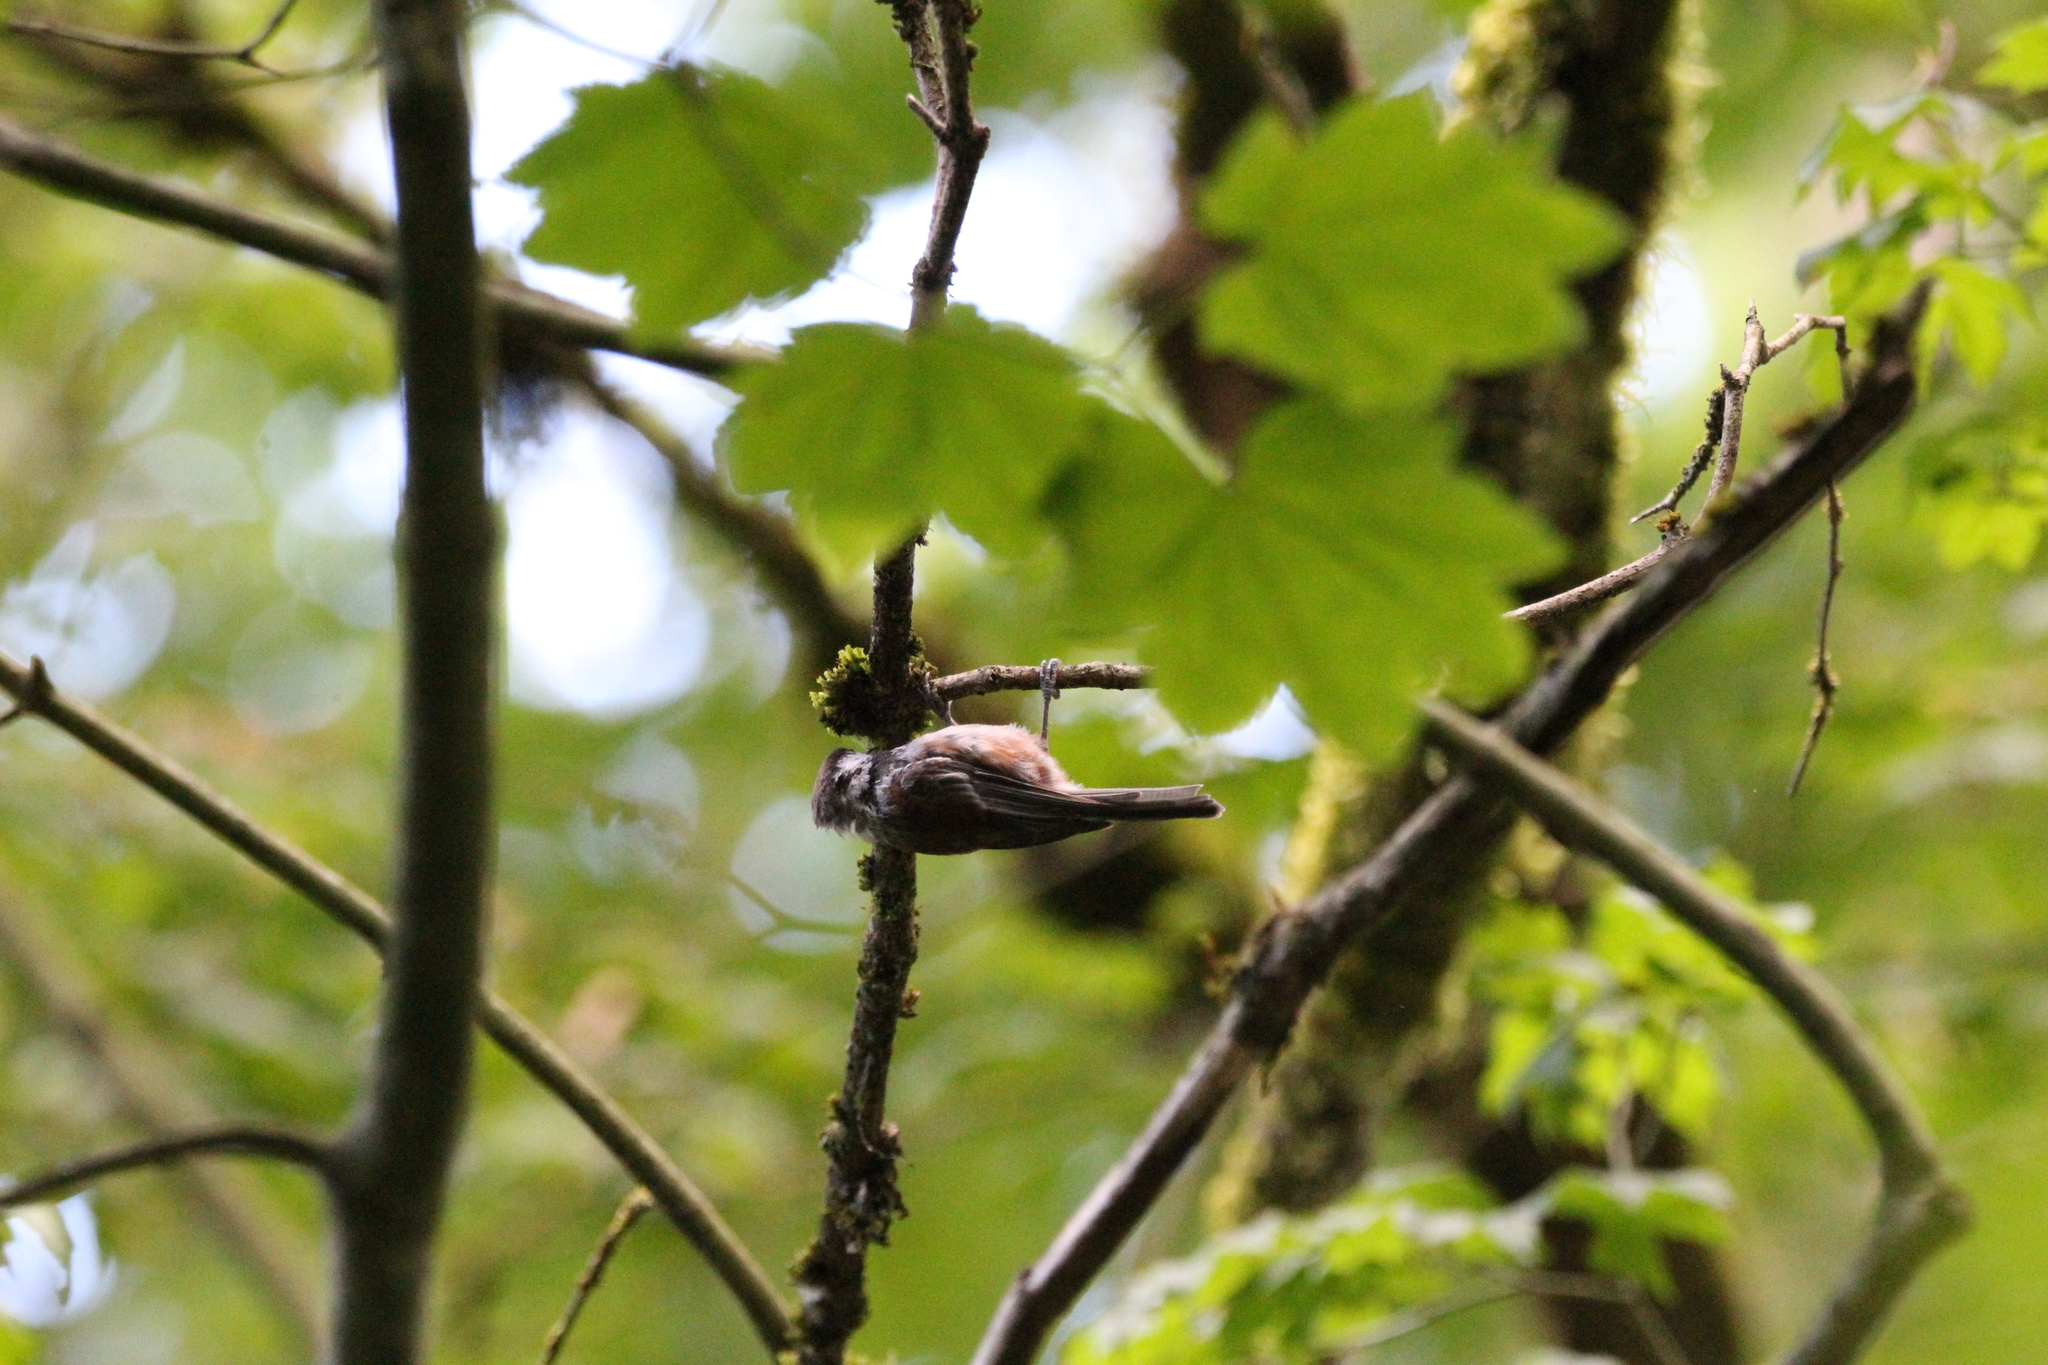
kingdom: Animalia
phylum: Chordata
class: Aves
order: Passeriformes
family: Paridae
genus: Poecile
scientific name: Poecile rufescens
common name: Chestnut-backed chickadee
